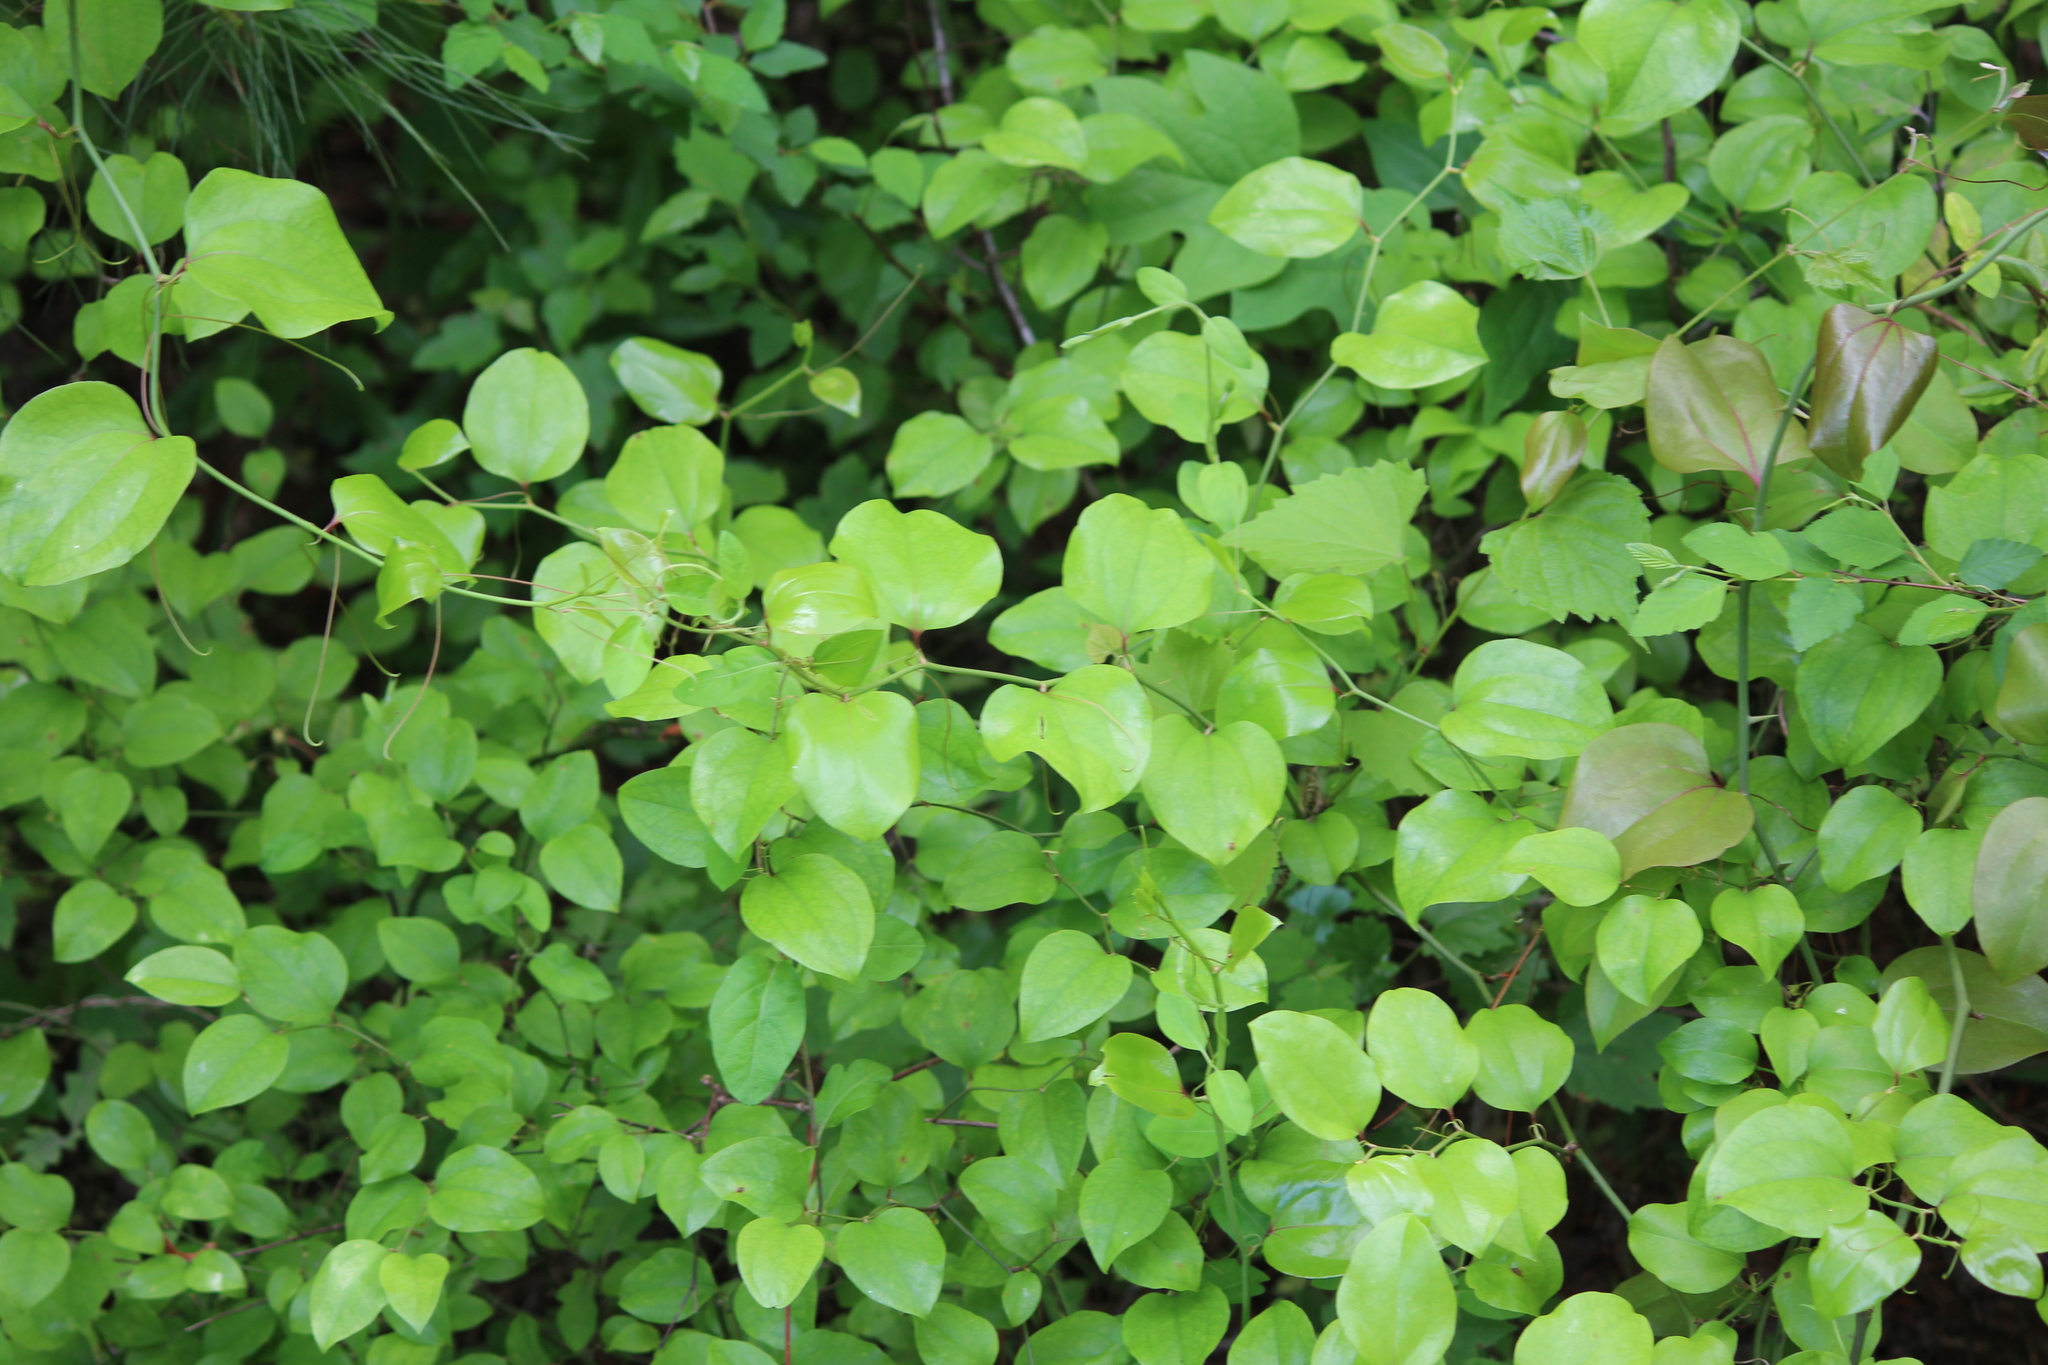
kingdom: Plantae
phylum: Tracheophyta
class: Liliopsida
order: Liliales
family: Smilacaceae
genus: Smilax
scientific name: Smilax rotundifolia
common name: Bullbriar
